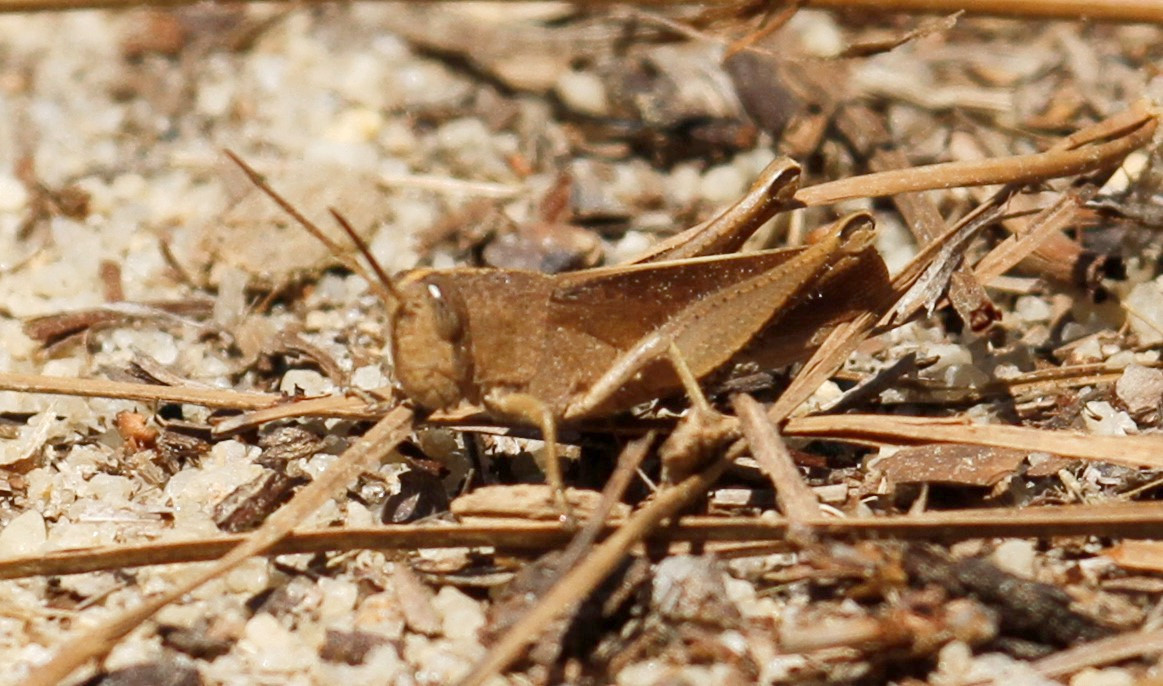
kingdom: Animalia
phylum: Arthropoda
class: Insecta
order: Orthoptera
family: Acrididae
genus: Schistocerca
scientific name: Schistocerca damnifica
